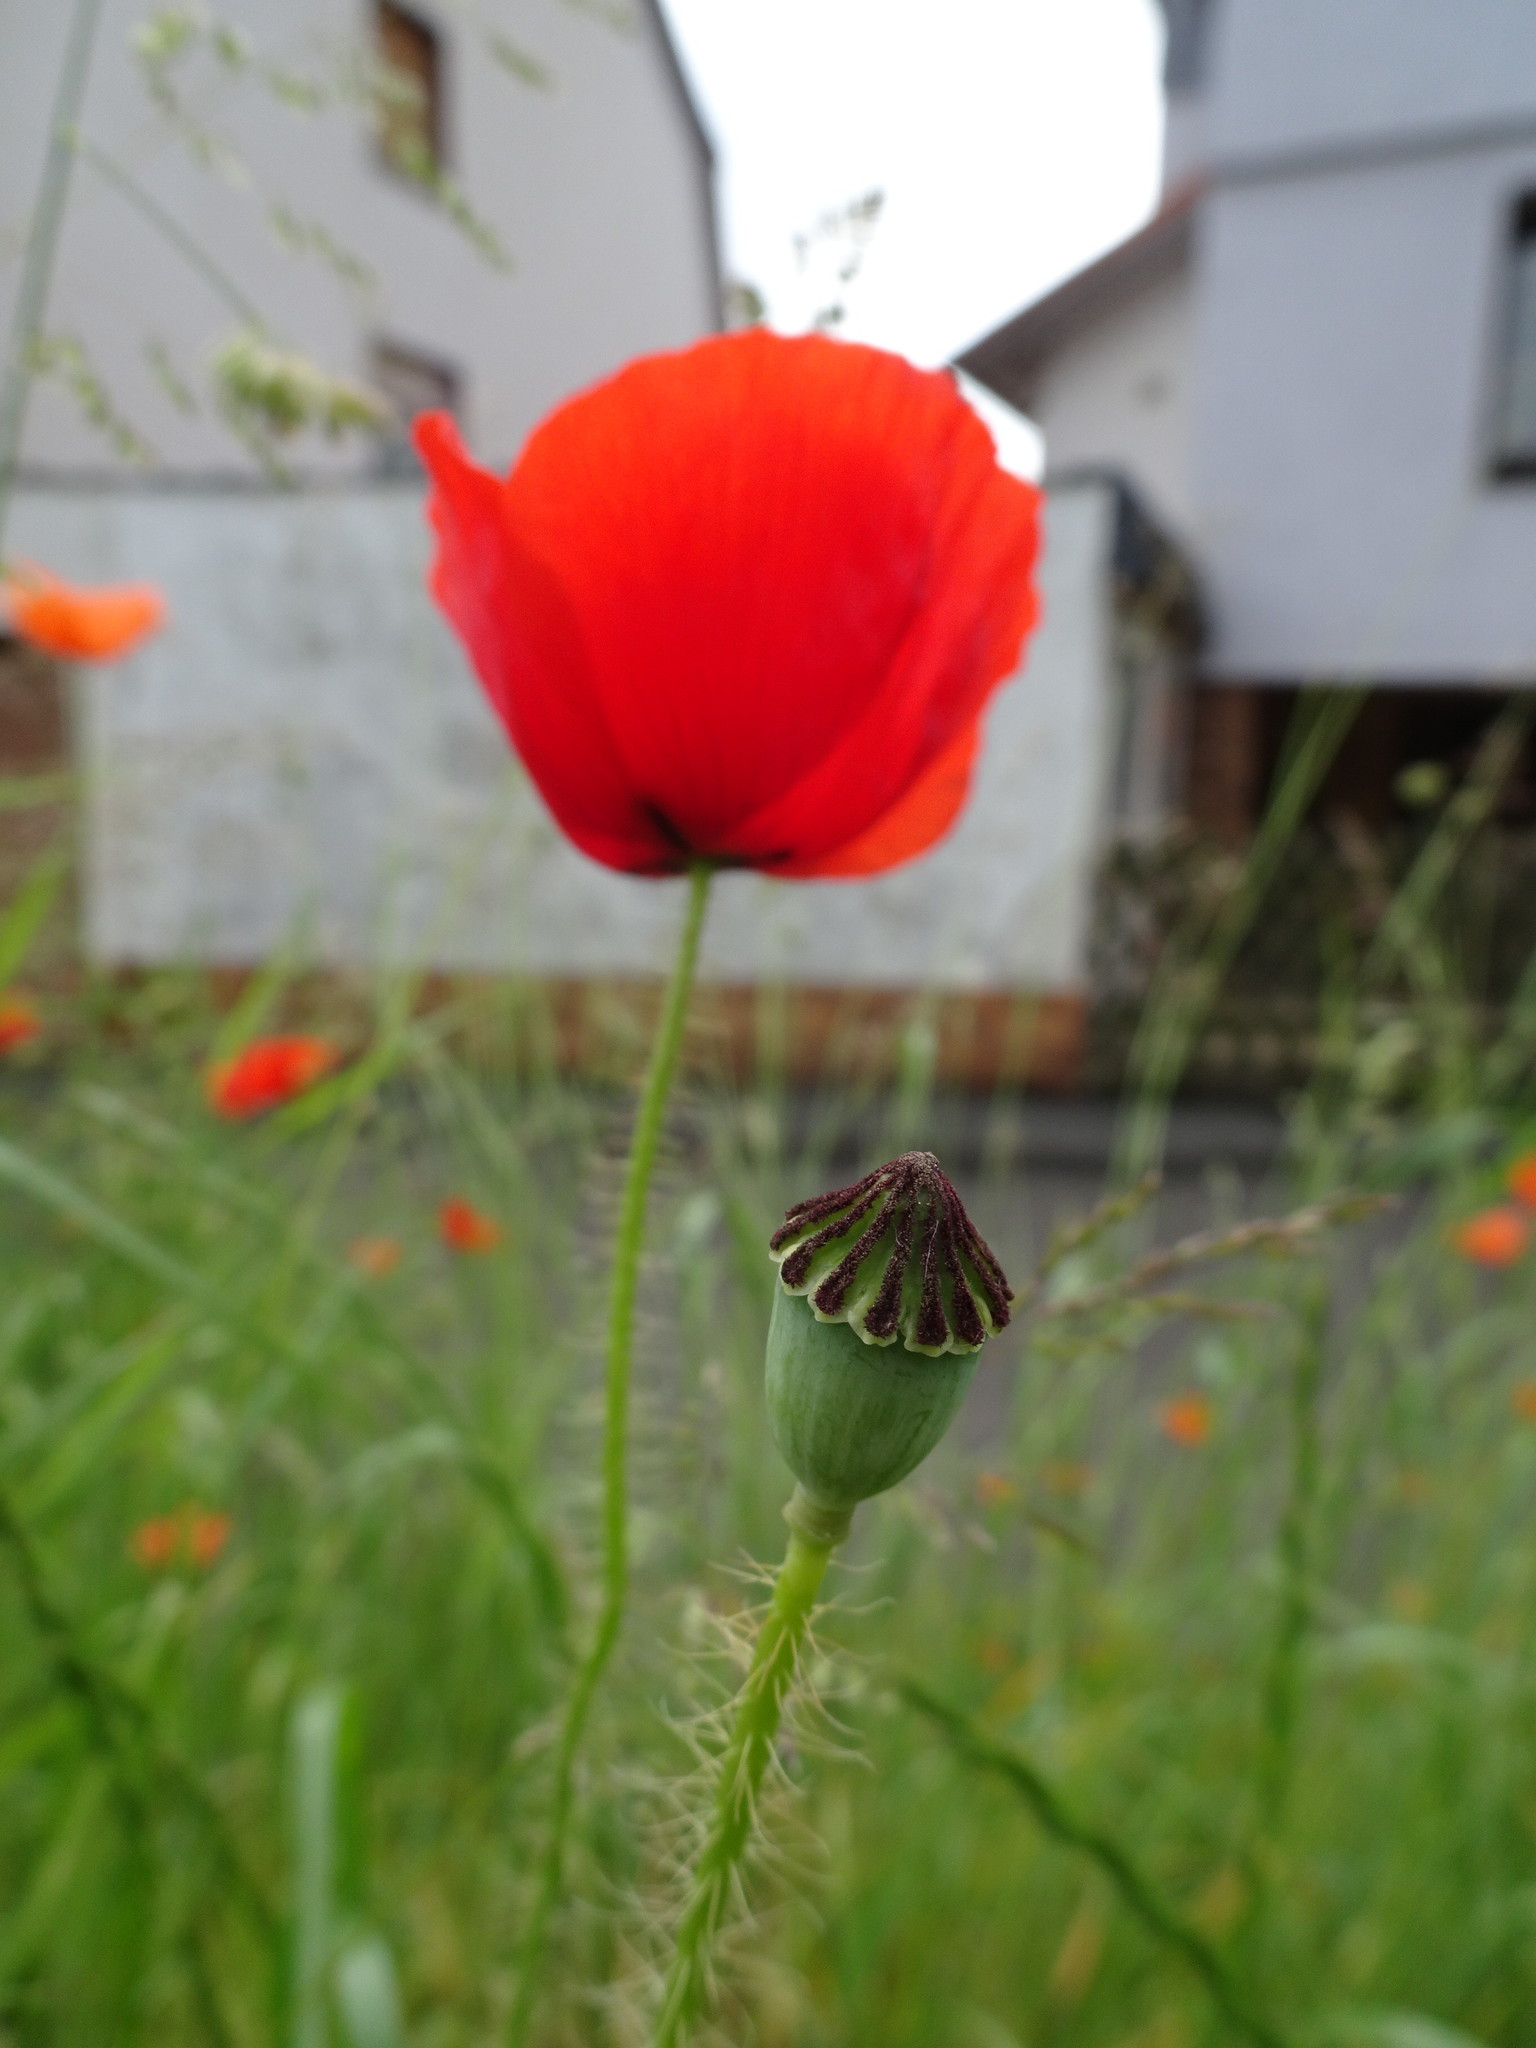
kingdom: Plantae
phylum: Tracheophyta
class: Magnoliopsida
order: Ranunculales
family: Papaveraceae
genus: Papaver
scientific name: Papaver rhoeas
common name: Corn poppy
